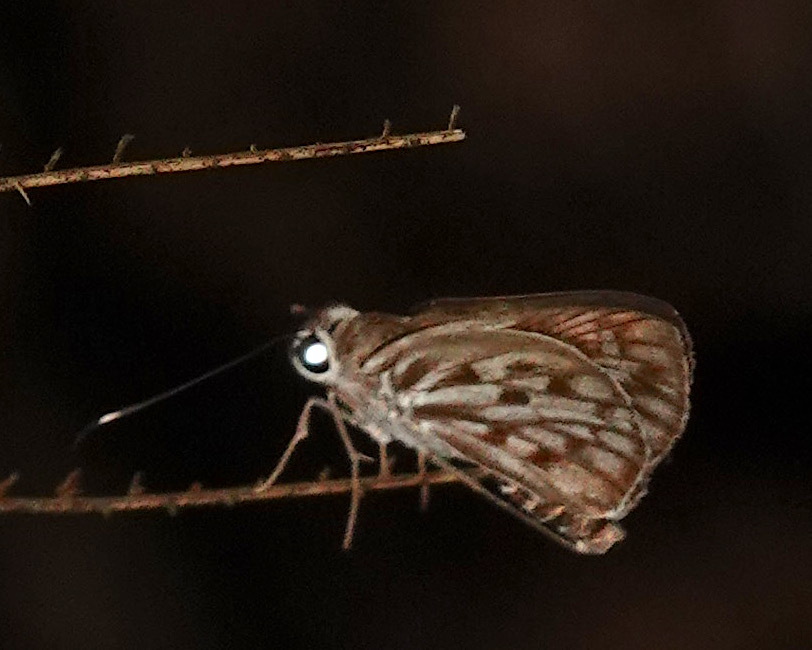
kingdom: Animalia
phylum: Arthropoda
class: Insecta
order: Lepidoptera
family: Hesperiidae
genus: Plastingia
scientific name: Plastingia naga
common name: Chequered lancer
